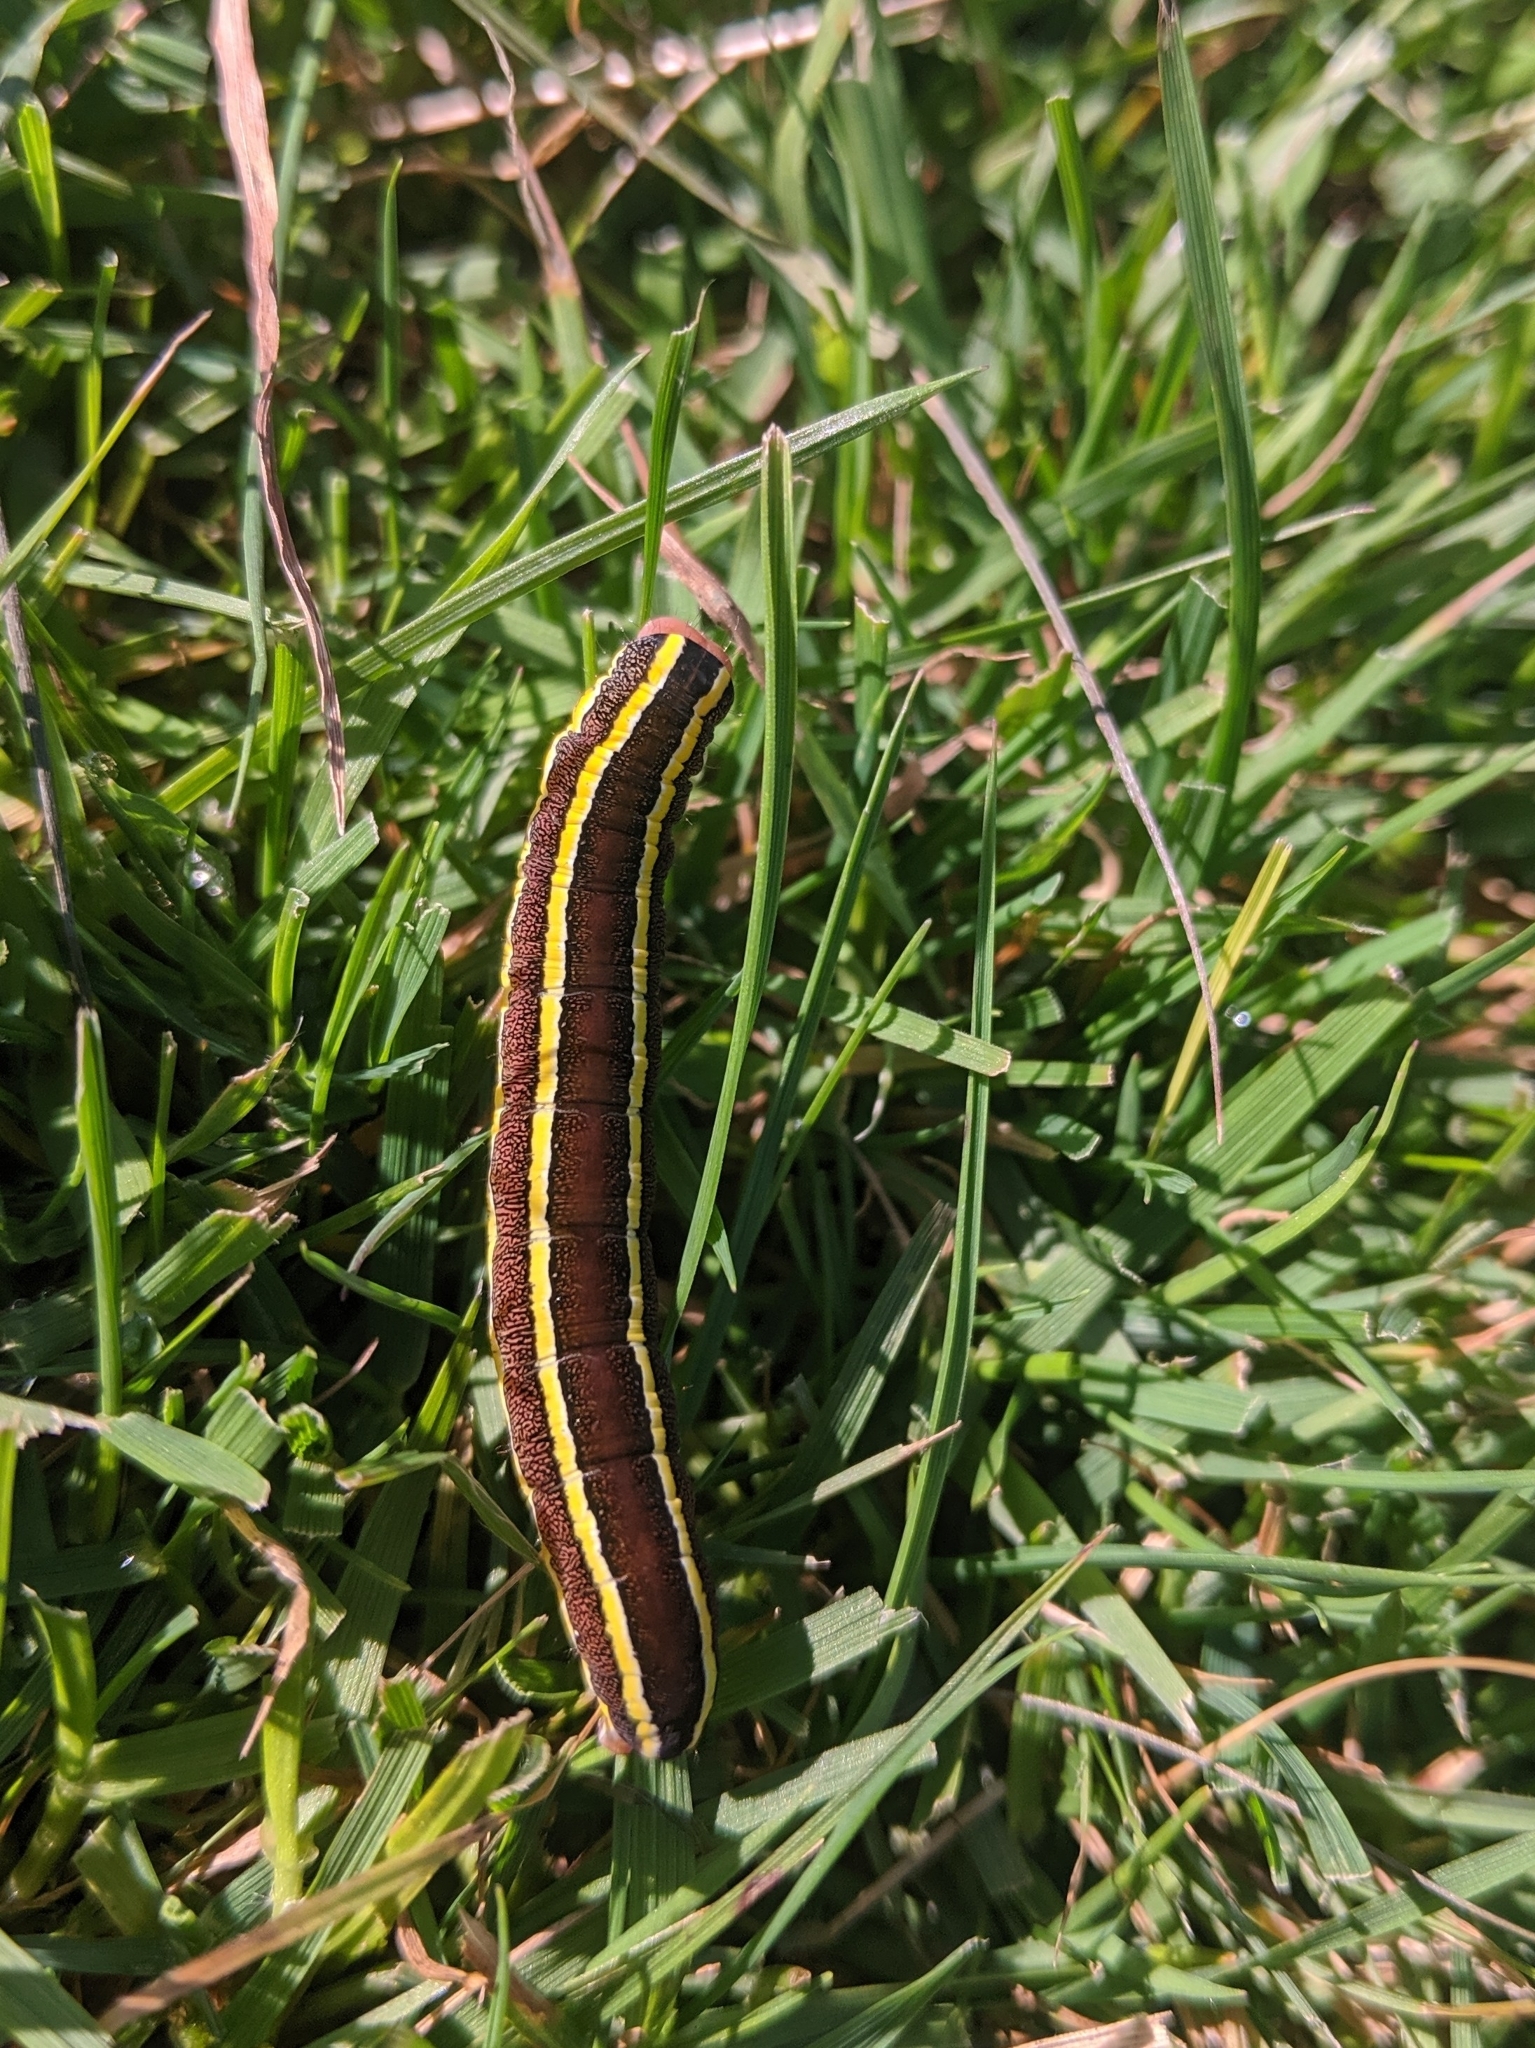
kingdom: Animalia
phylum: Arthropoda
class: Insecta
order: Lepidoptera
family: Noctuidae
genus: Ceramica
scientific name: Ceramica pisi
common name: Broom moth
